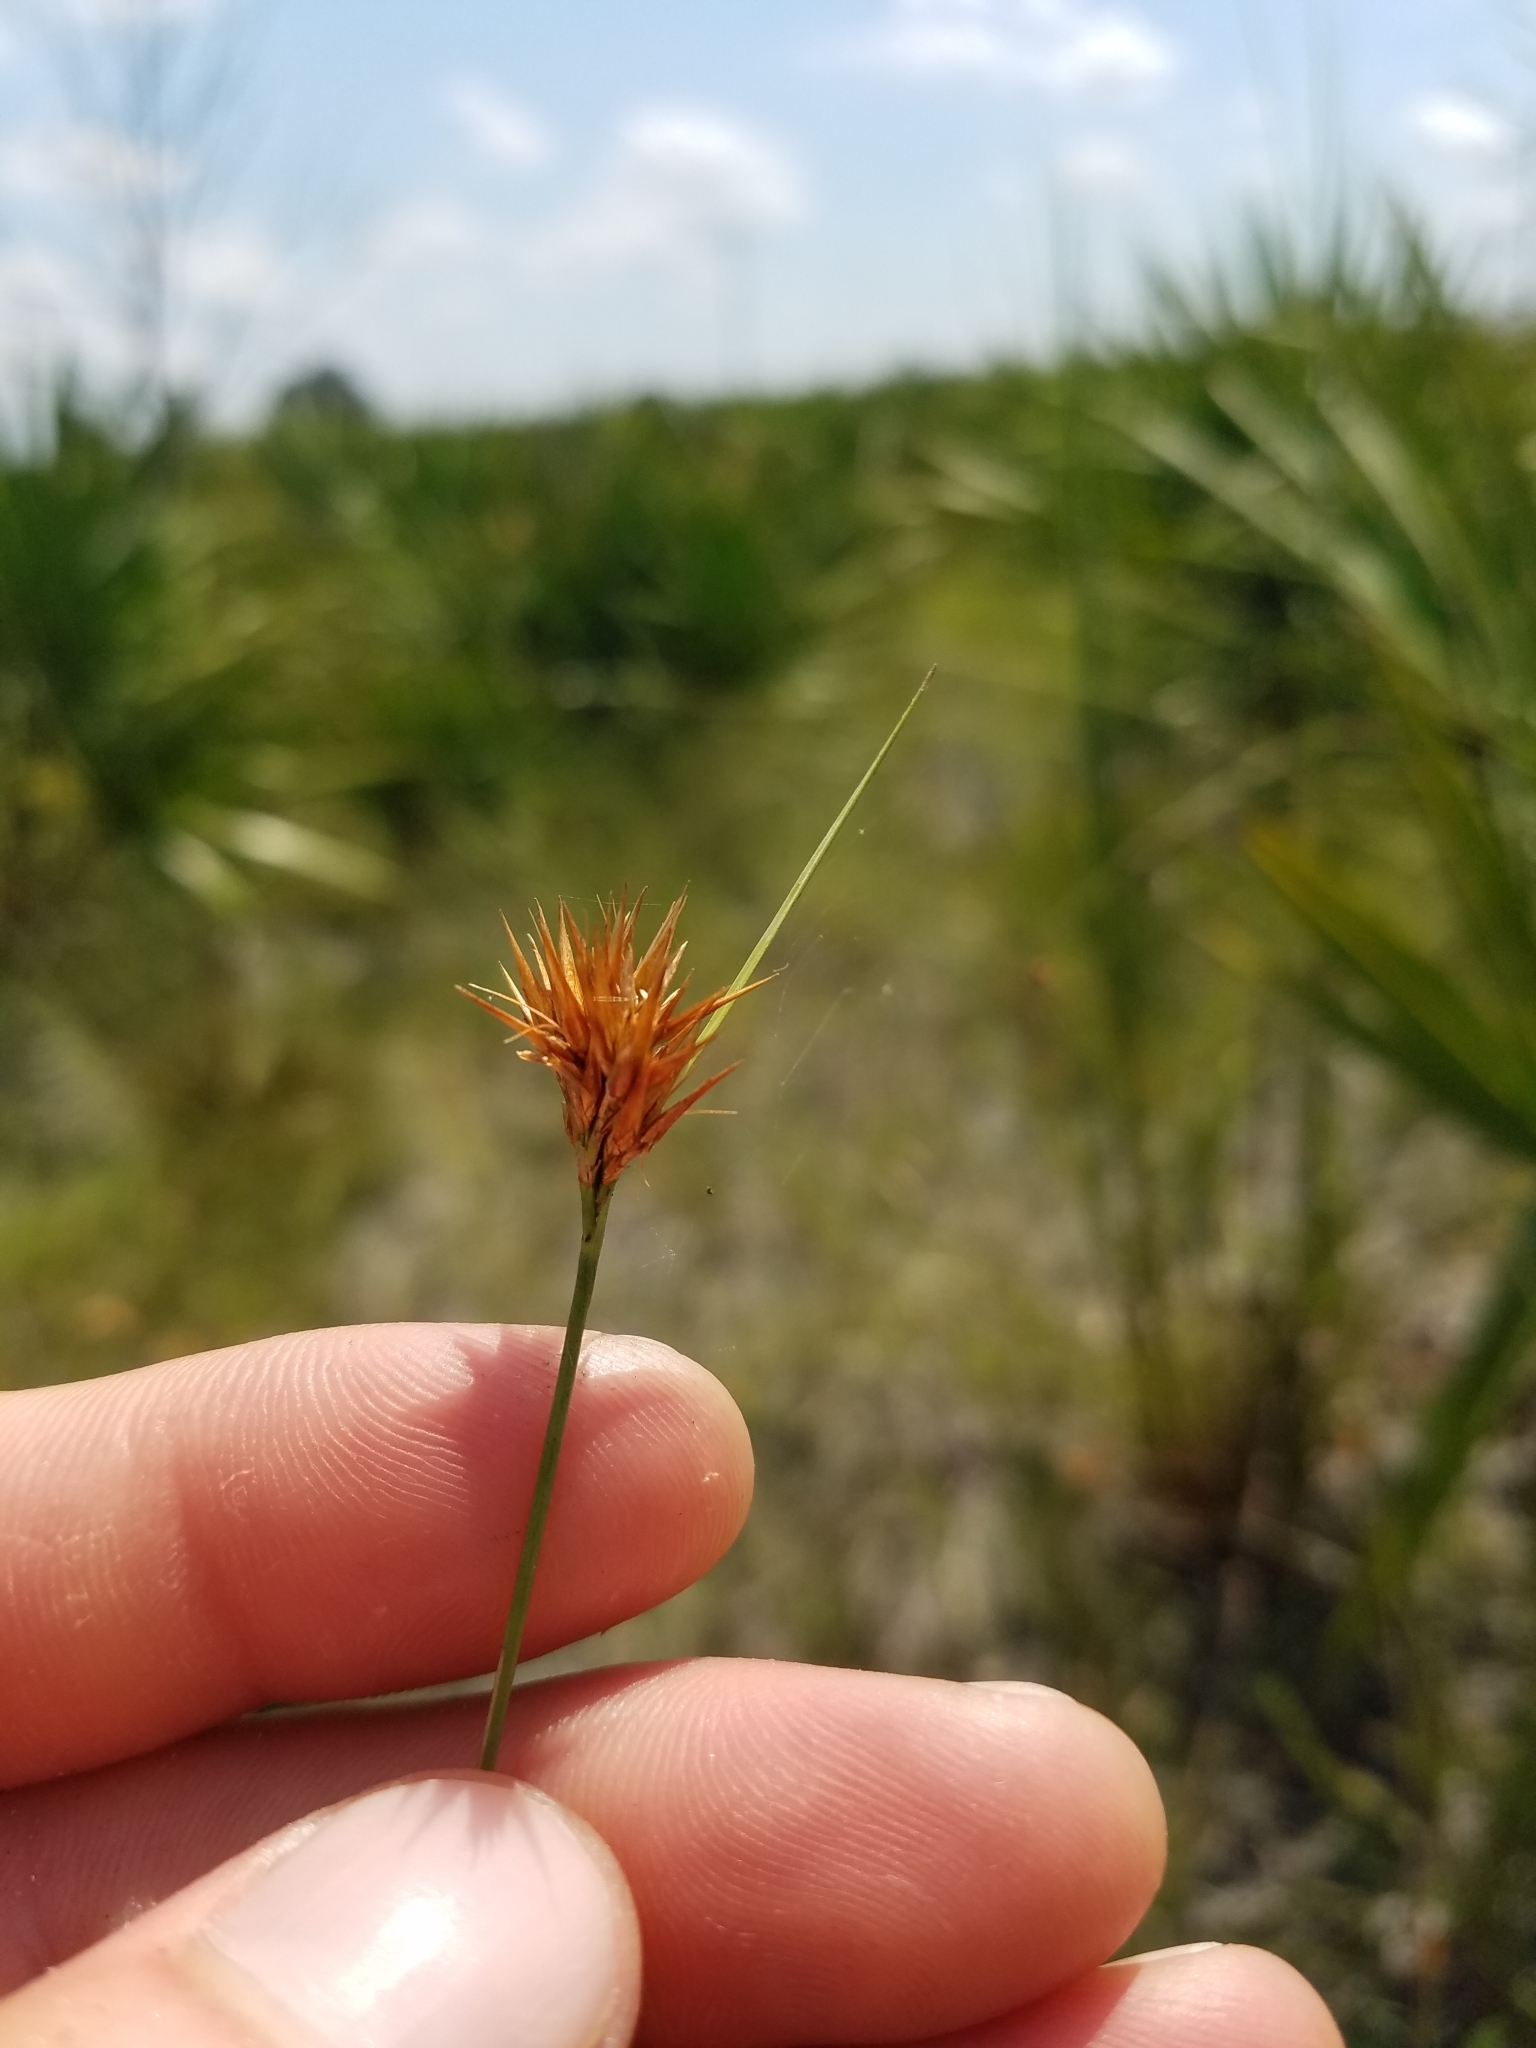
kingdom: Plantae
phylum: Tracheophyta
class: Liliopsida
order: Poales
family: Cyperaceae
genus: Rhynchospora
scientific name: Rhynchospora megaplumosa
